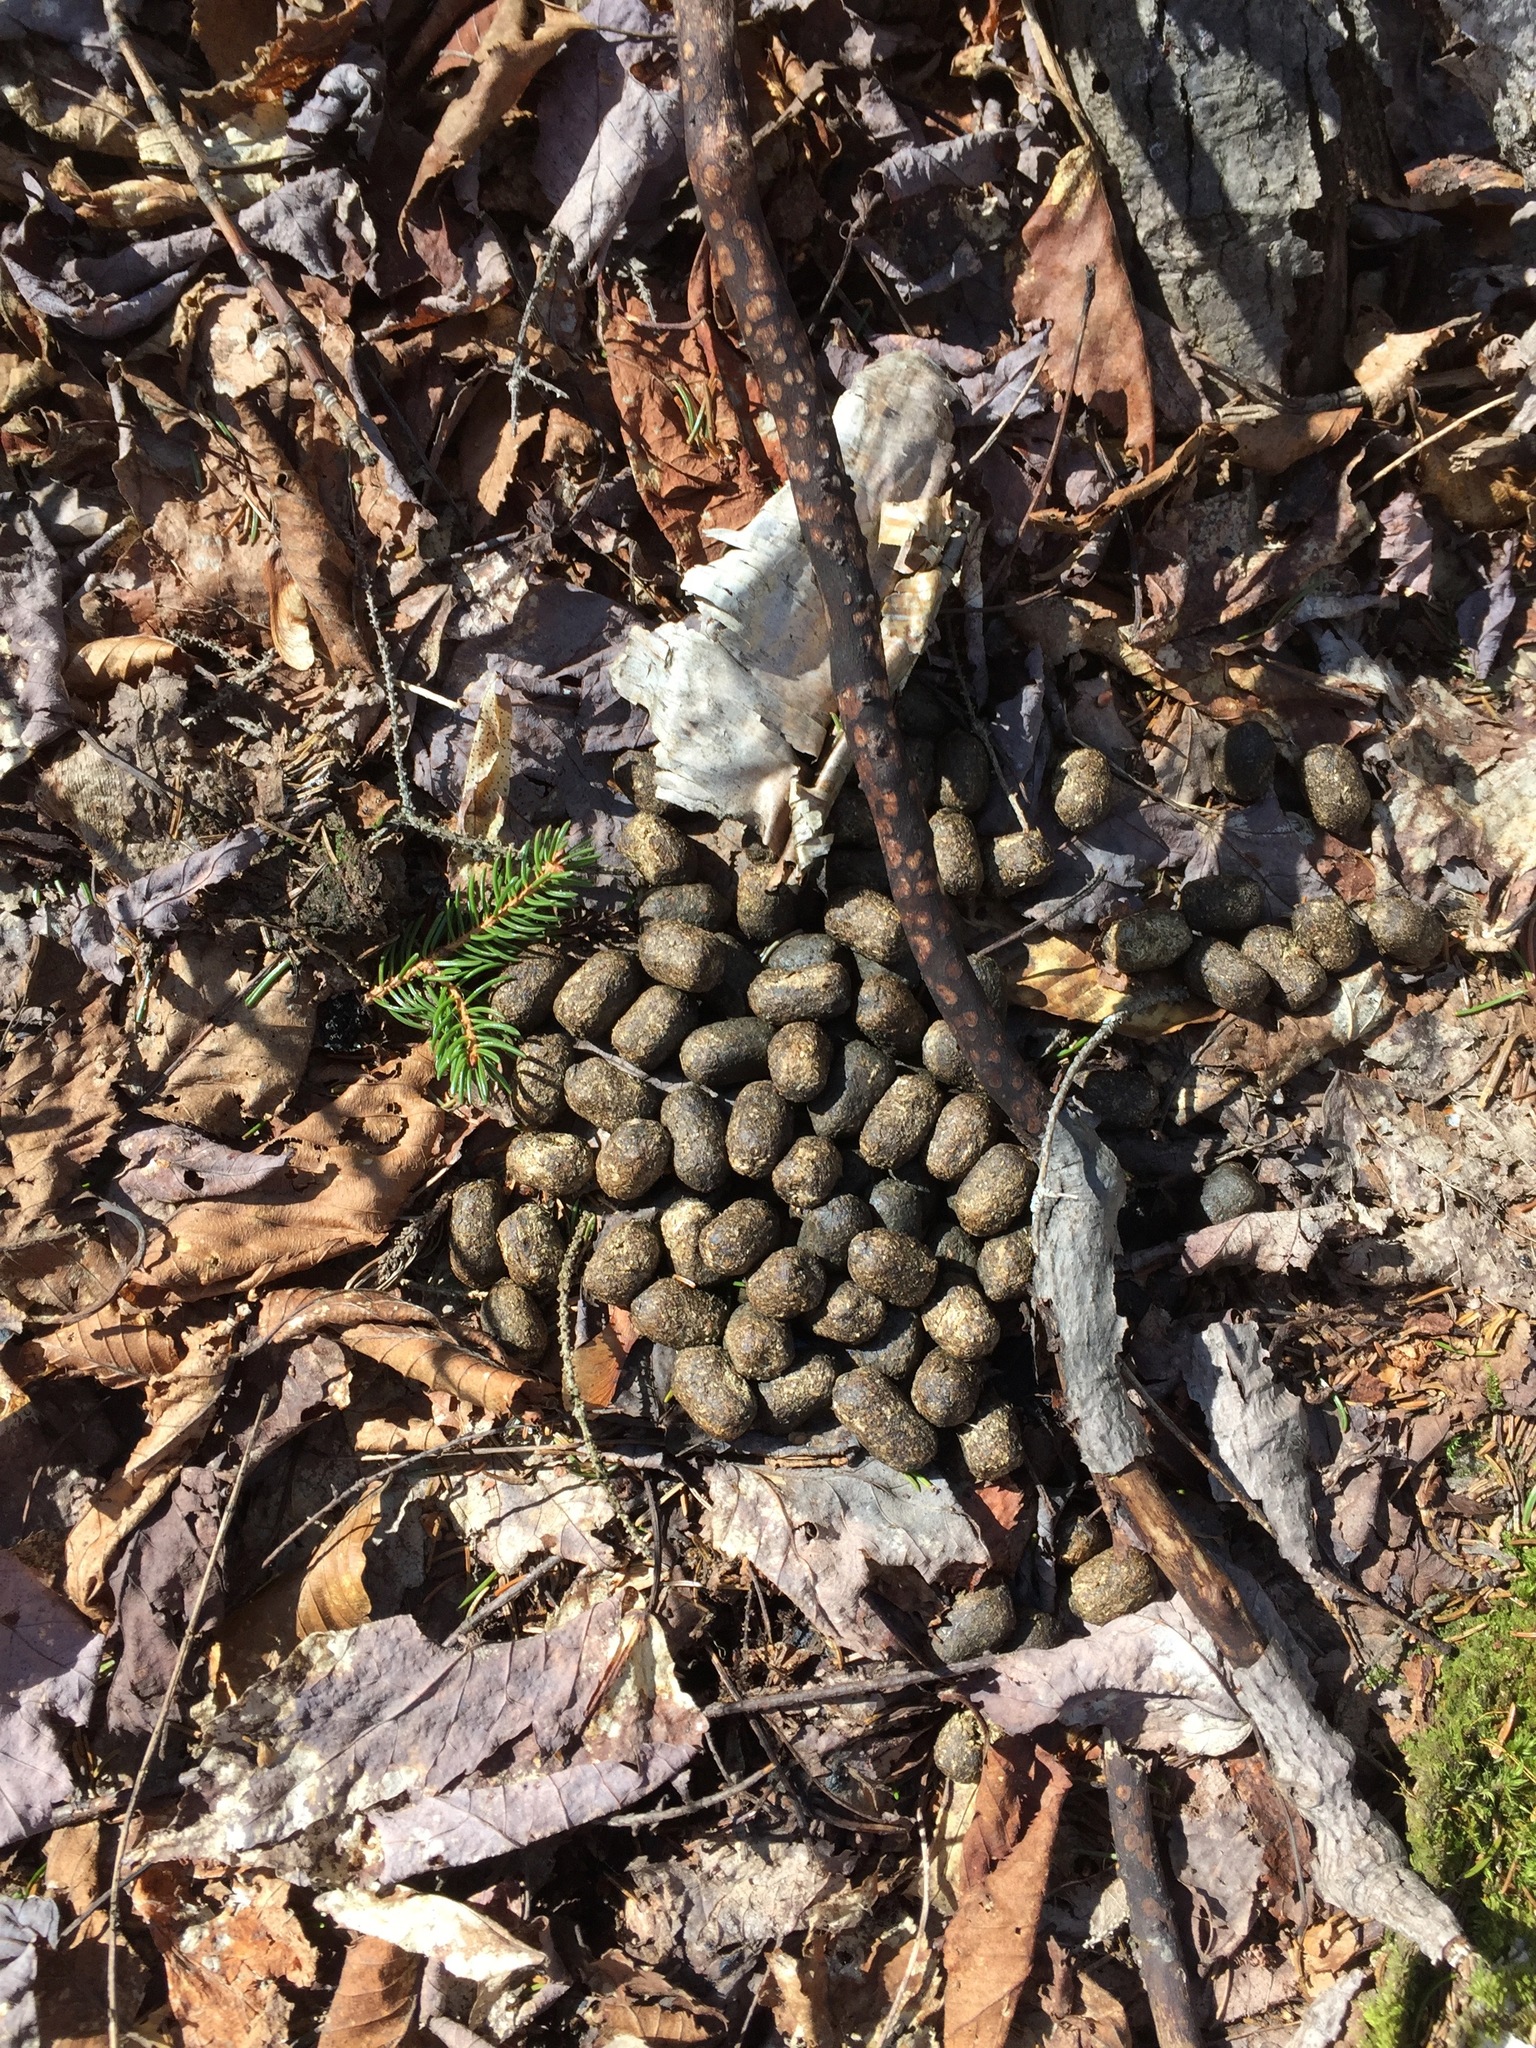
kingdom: Animalia
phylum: Chordata
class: Mammalia
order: Artiodactyla
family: Cervidae
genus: Alces
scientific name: Alces alces
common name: Moose
